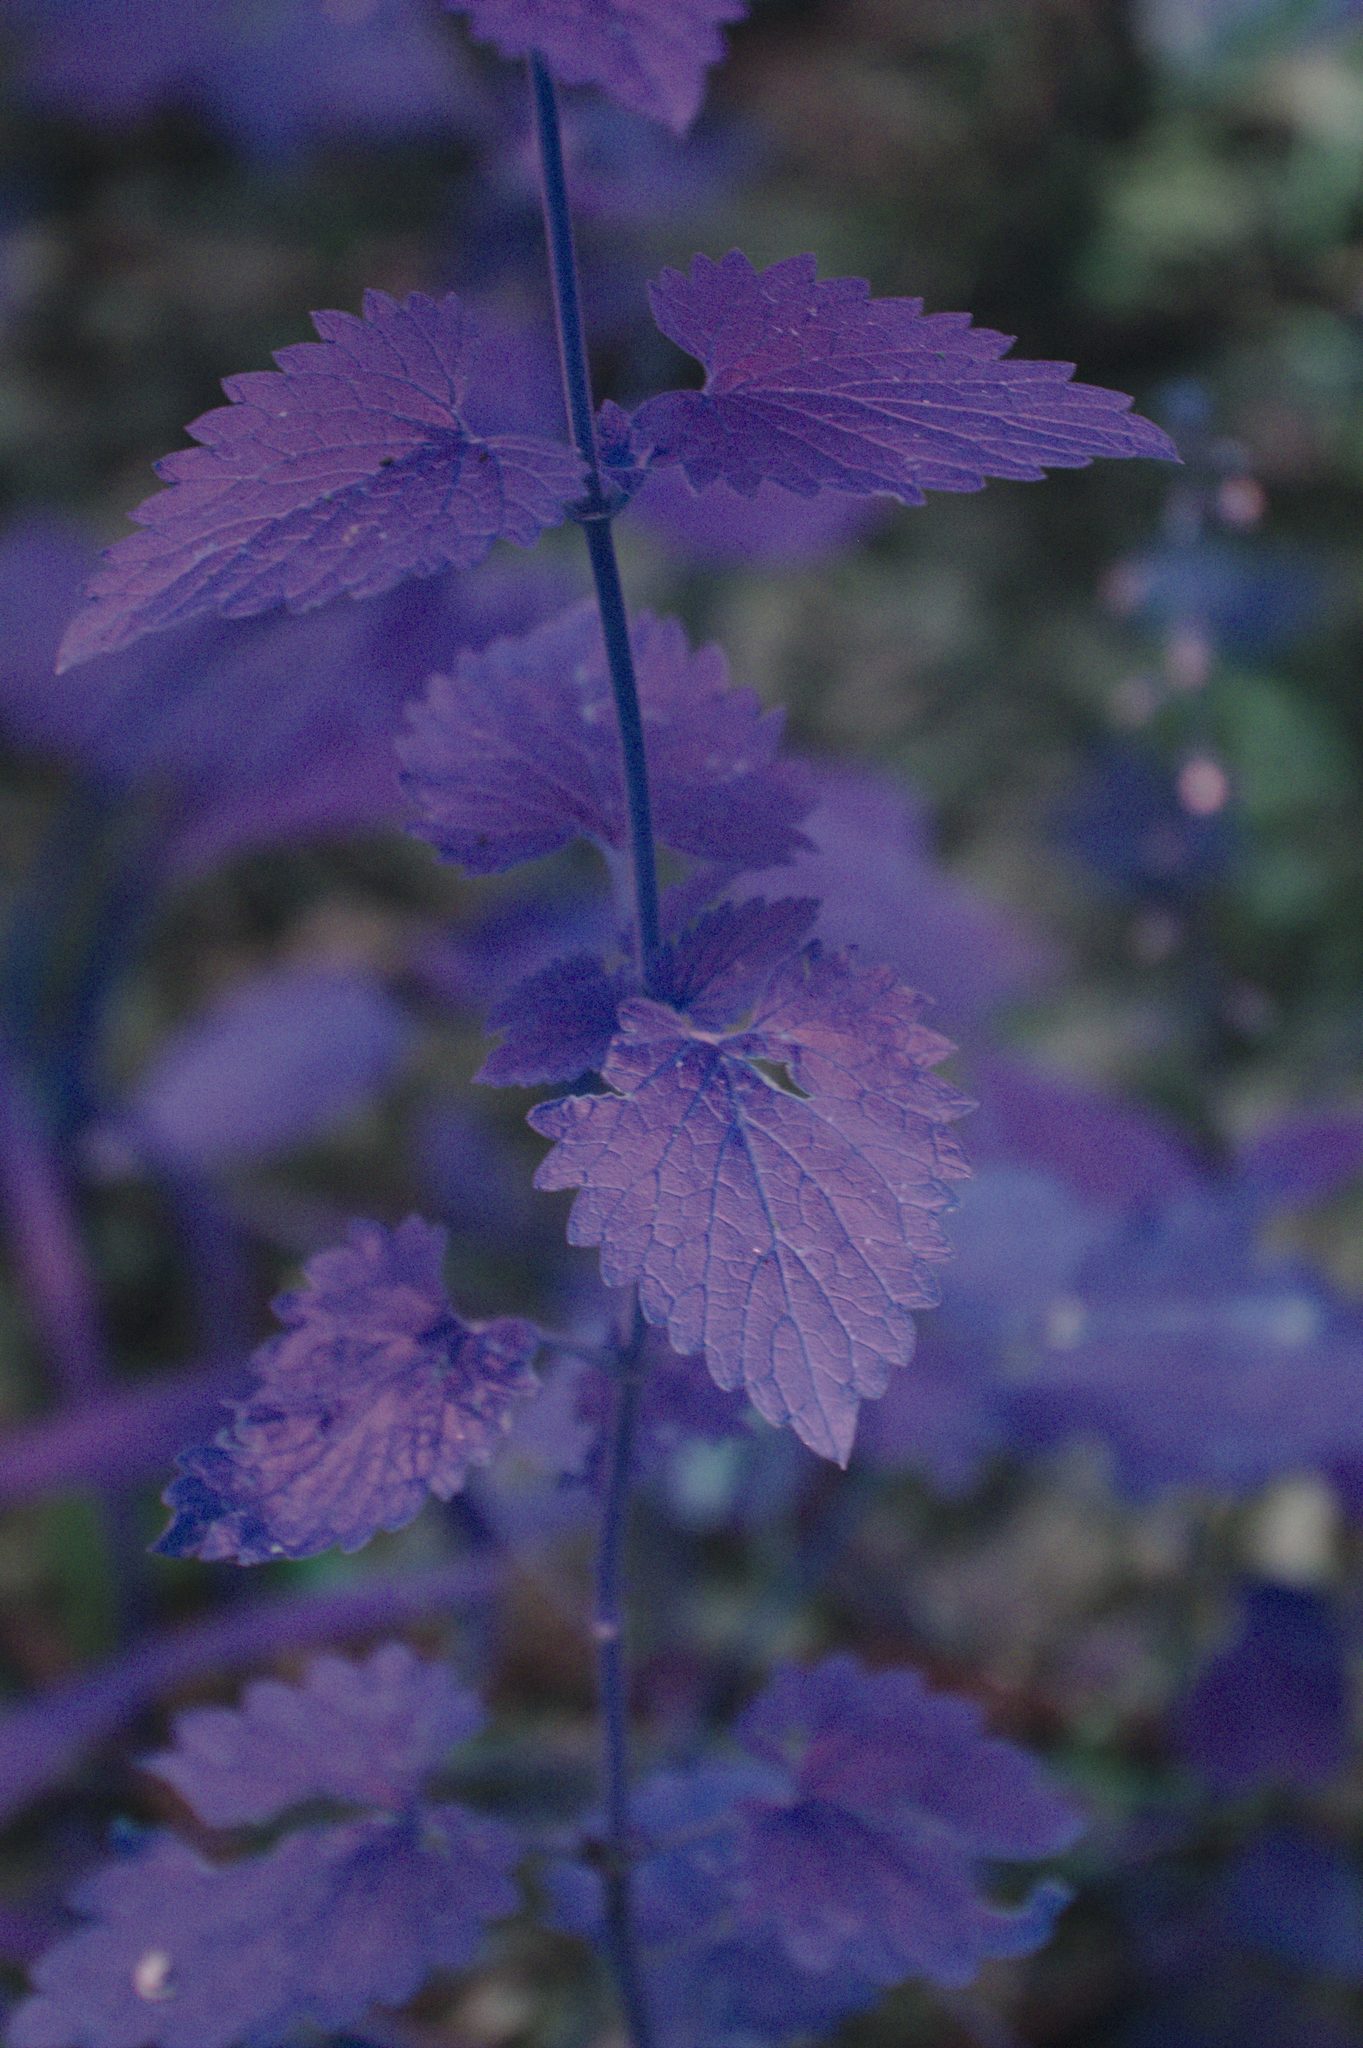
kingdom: Plantae
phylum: Tracheophyta
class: Magnoliopsida
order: Lamiales
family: Lamiaceae
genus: Nepeta
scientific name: Nepeta cataria
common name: Catnip
